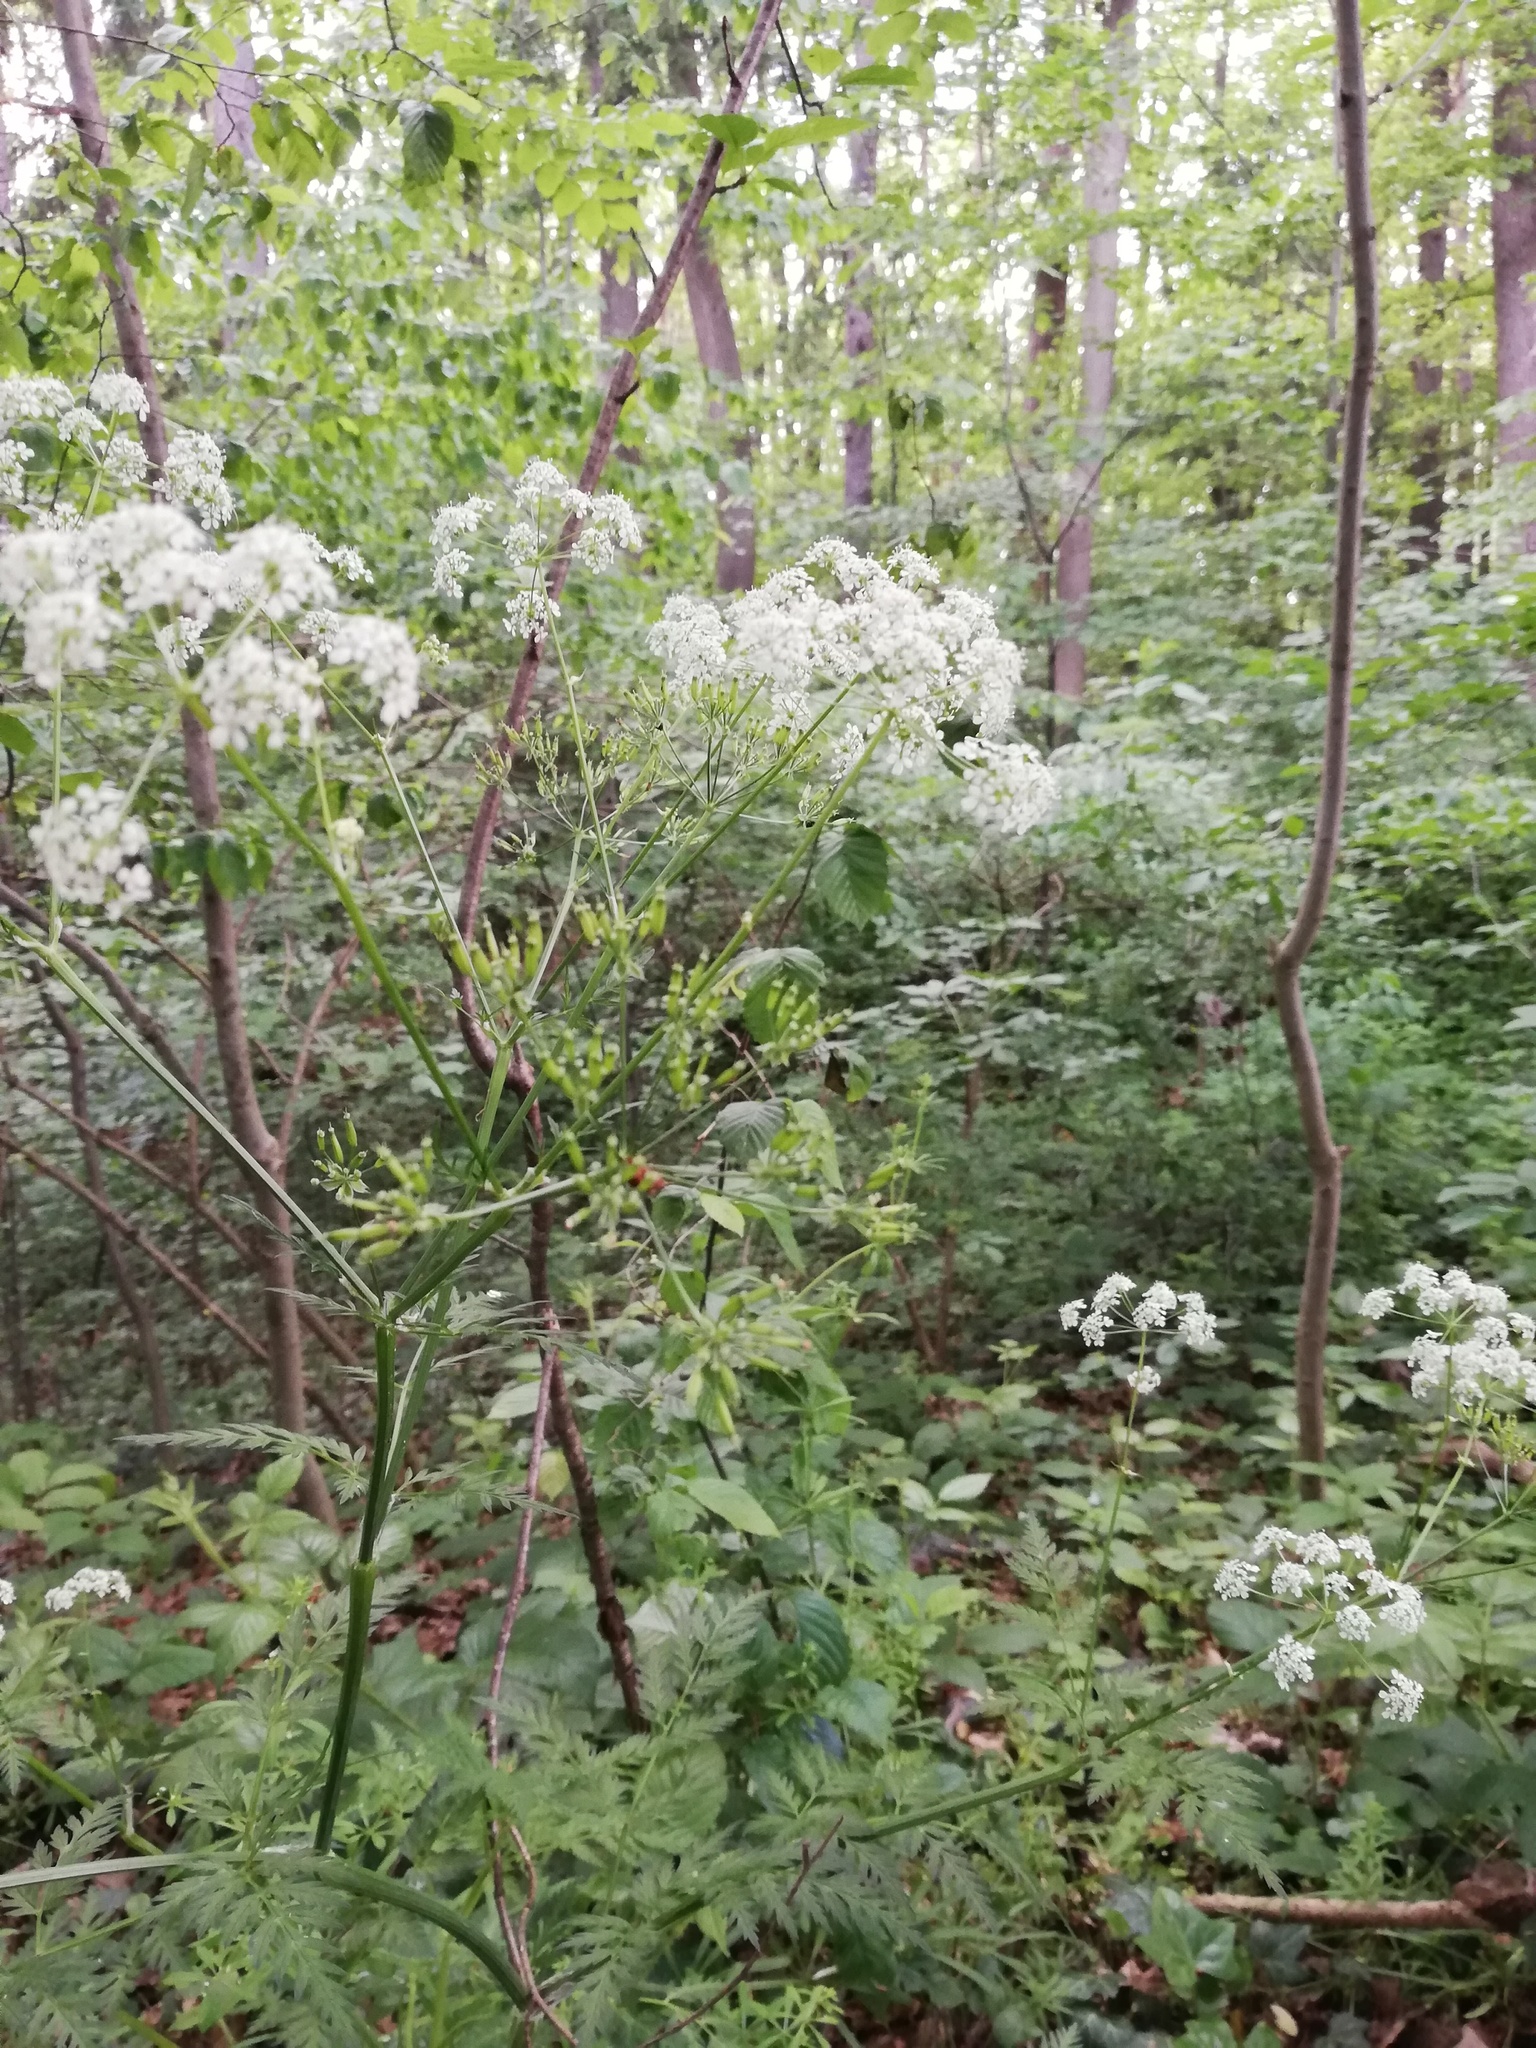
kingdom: Plantae
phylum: Tracheophyta
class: Magnoliopsida
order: Apiales
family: Apiaceae
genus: Anthriscus
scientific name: Anthriscus sylvestris
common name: Cow parsley
